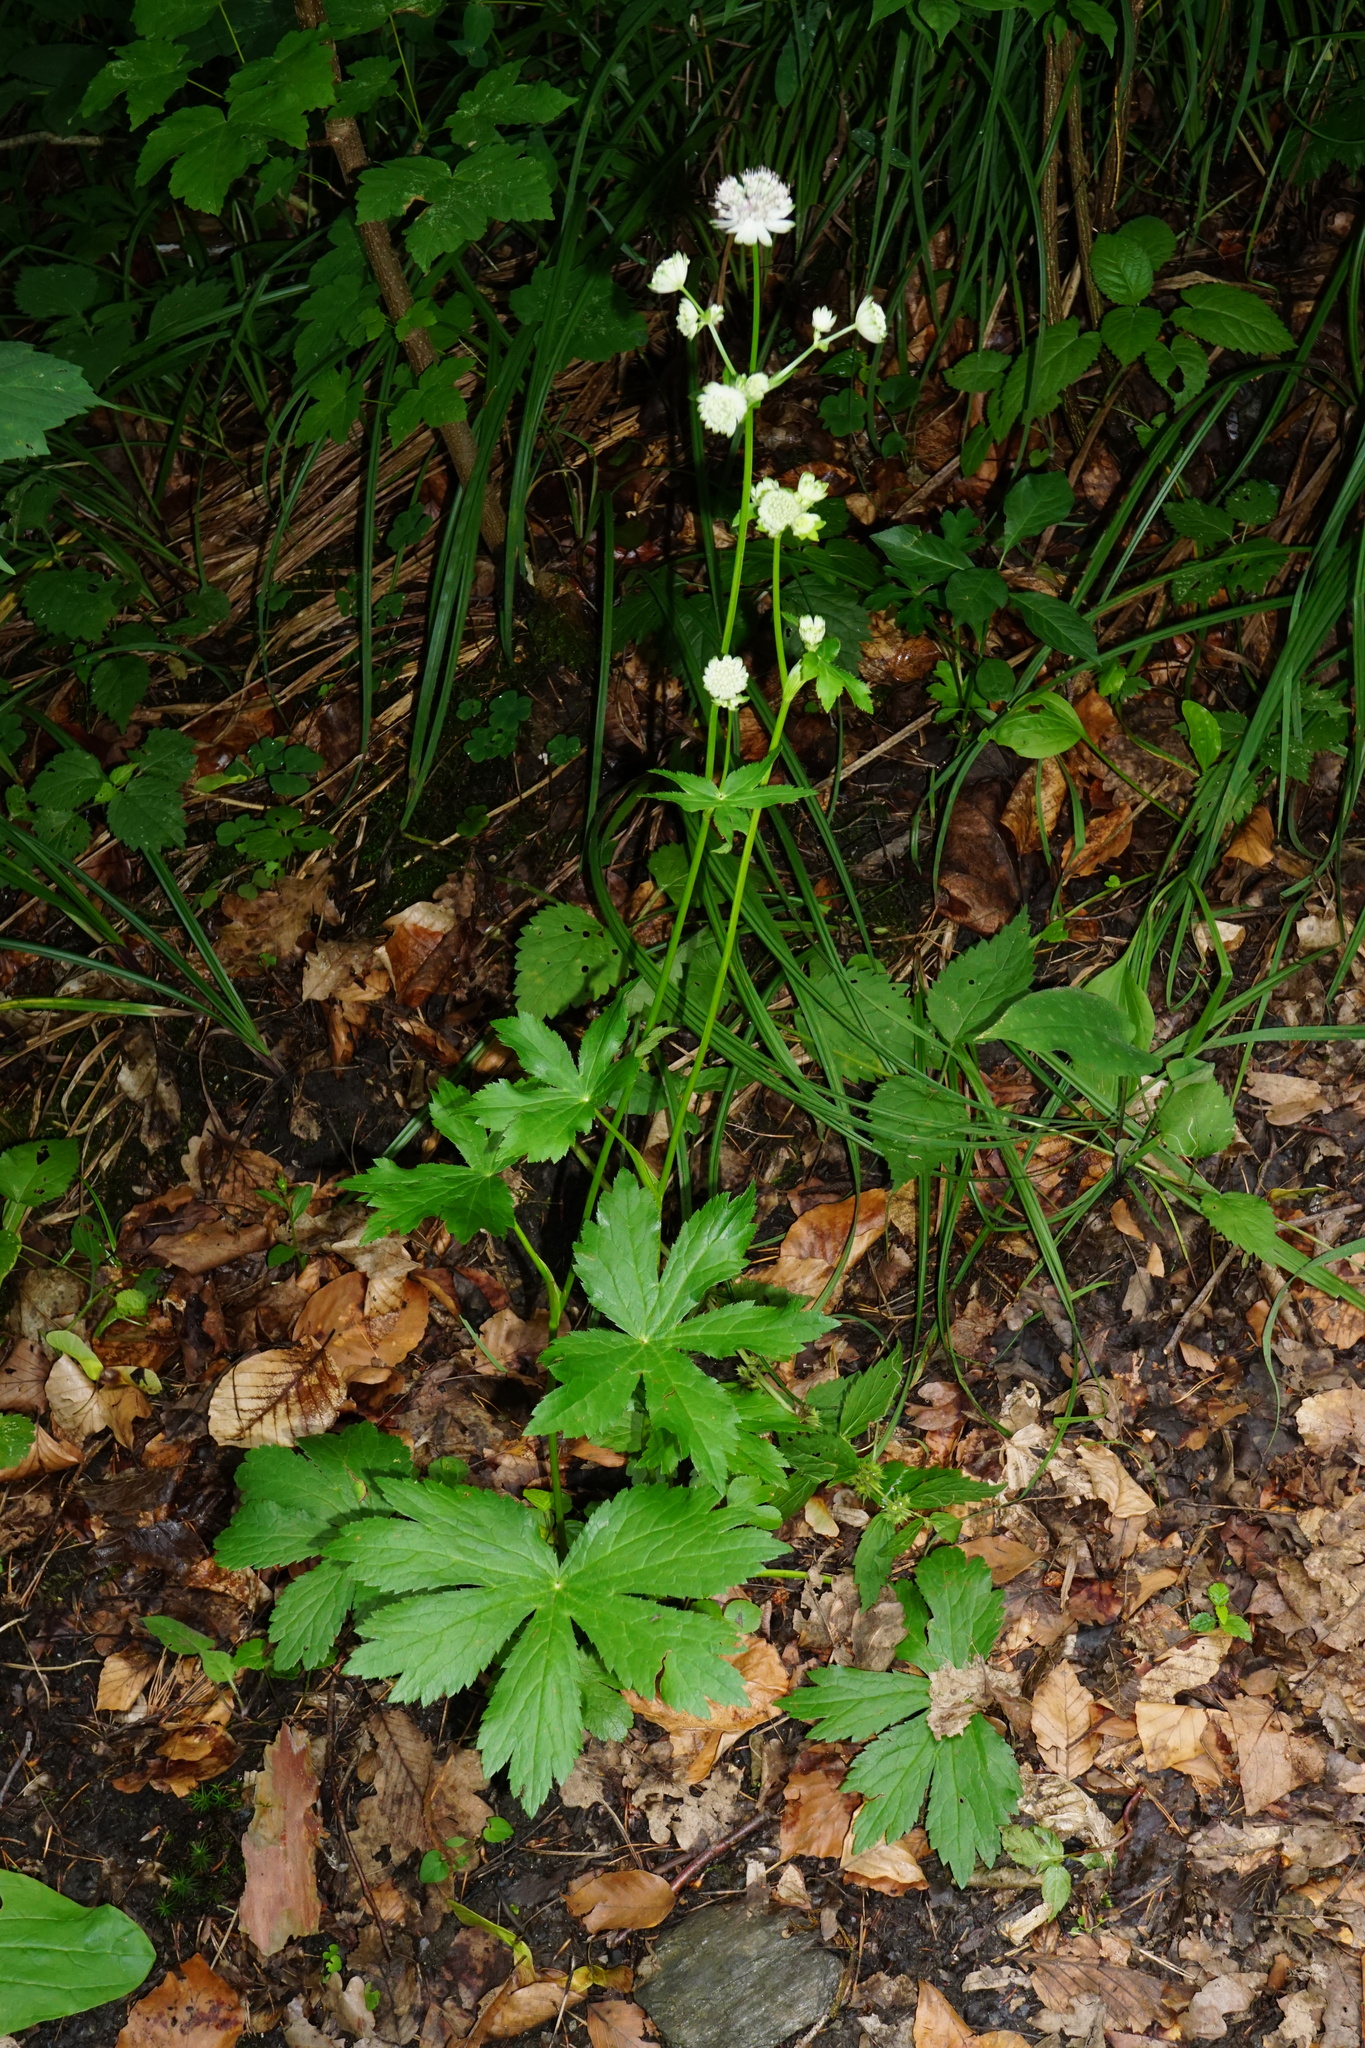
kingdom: Plantae
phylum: Tracheophyta
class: Magnoliopsida
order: Apiales
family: Apiaceae
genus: Astrantia
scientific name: Astrantia major
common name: Greater masterwort
